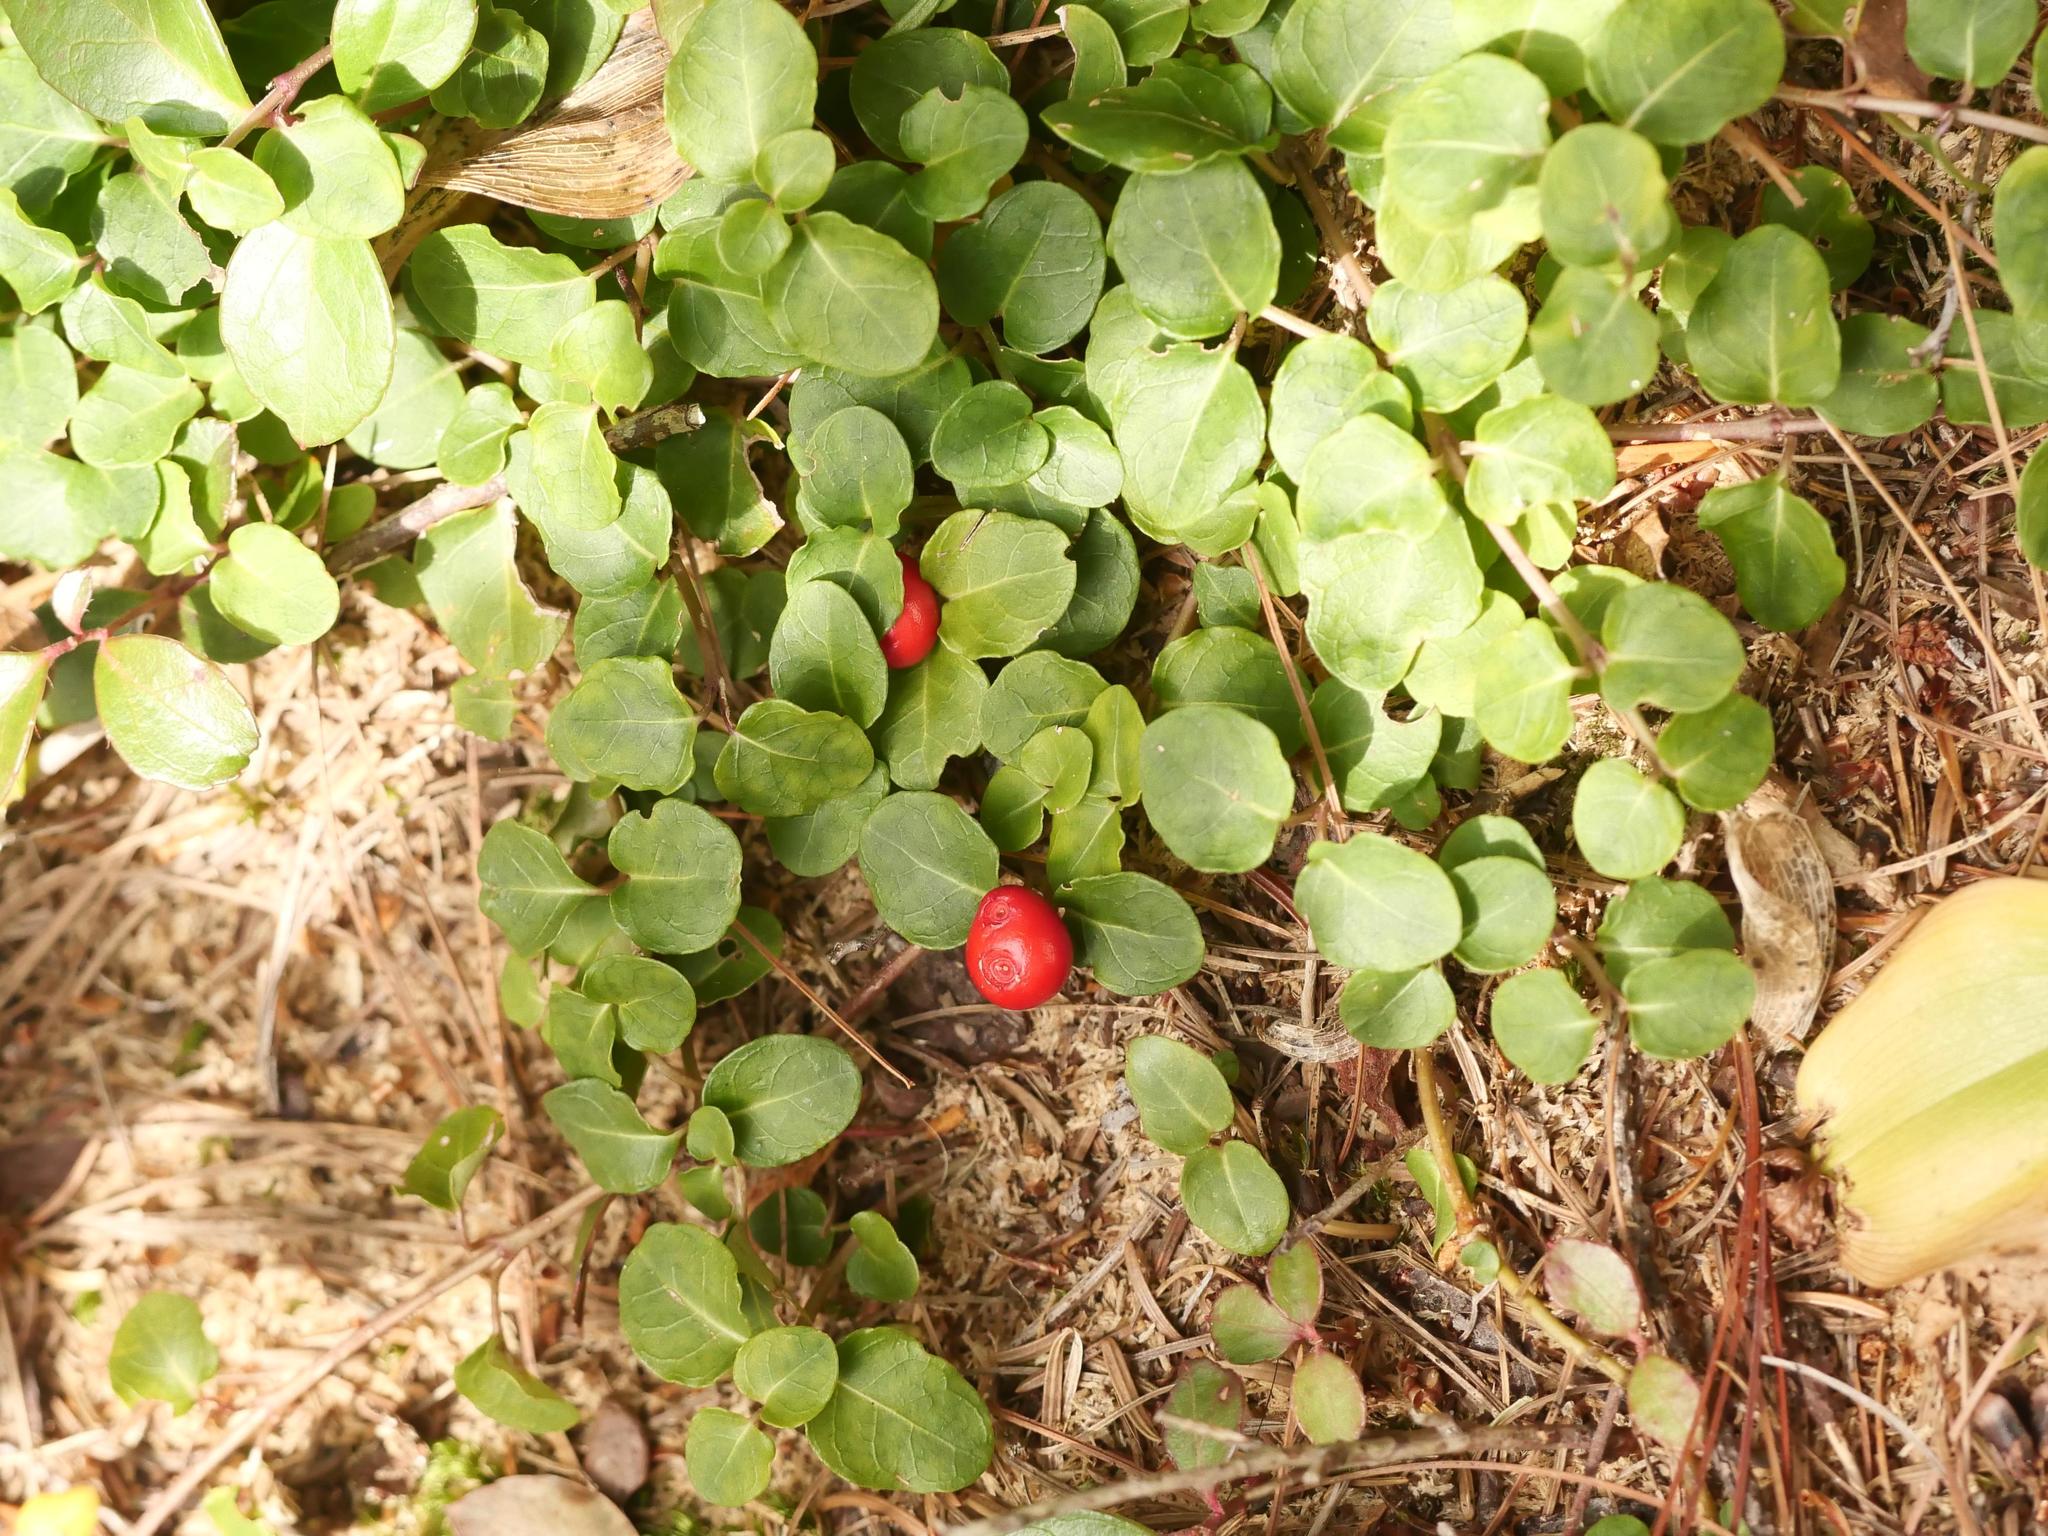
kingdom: Plantae
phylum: Tracheophyta
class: Magnoliopsida
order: Gentianales
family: Rubiaceae
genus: Mitchella
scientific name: Mitchella repens
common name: Partridge-berry
